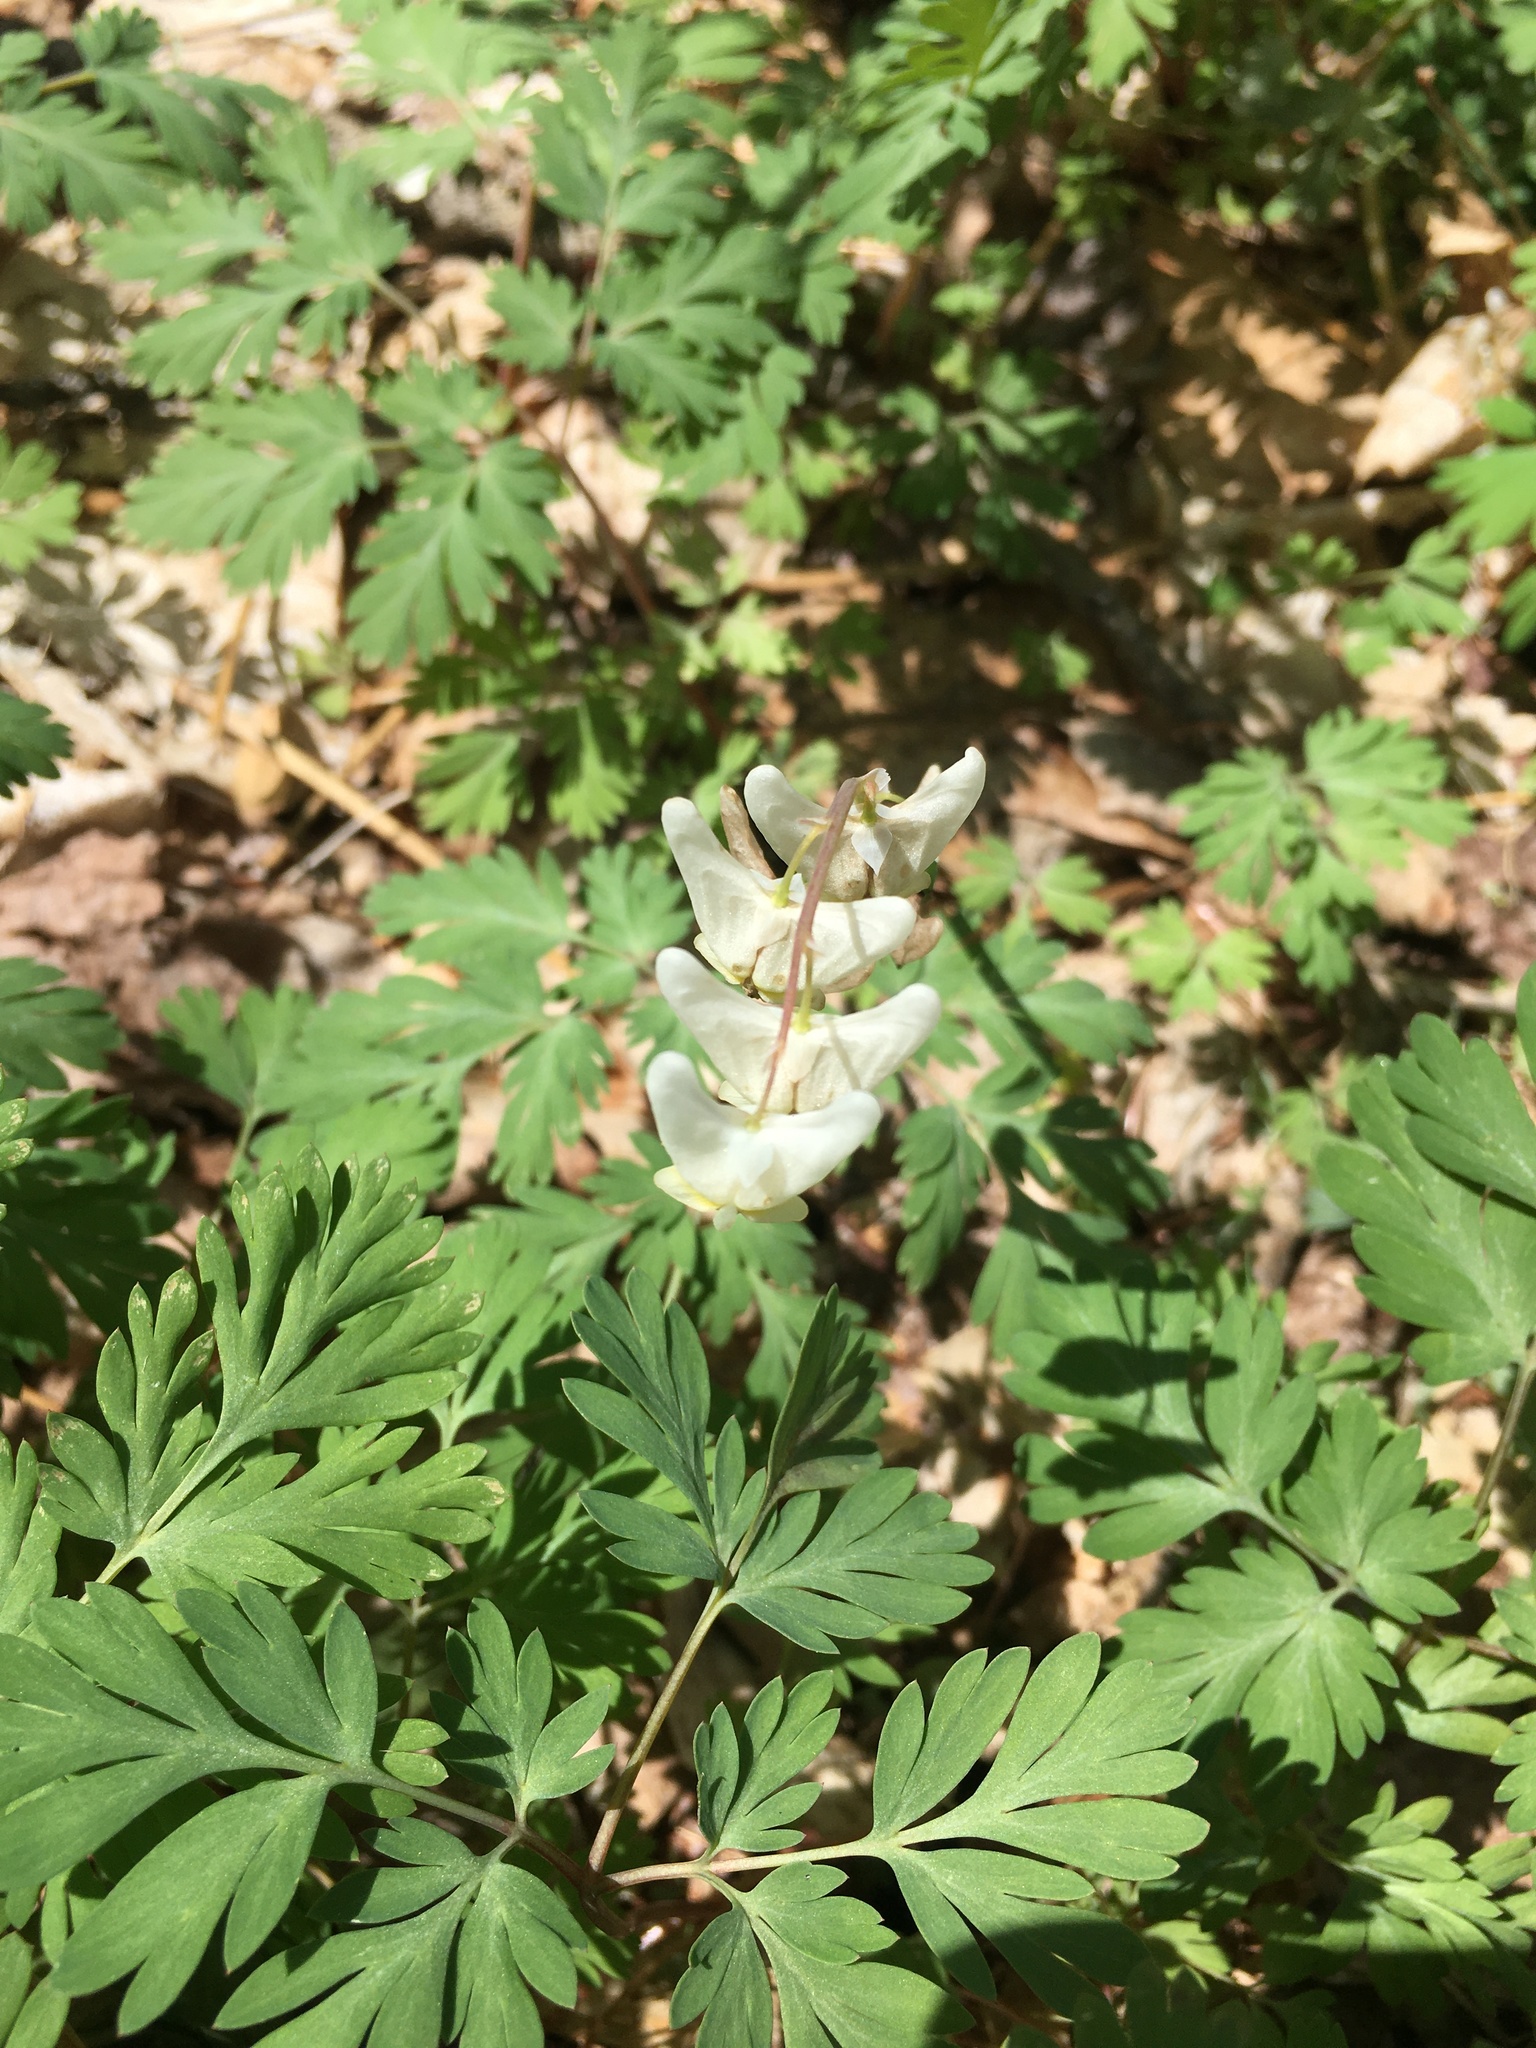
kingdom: Plantae
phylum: Tracheophyta
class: Magnoliopsida
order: Ranunculales
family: Papaveraceae
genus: Dicentra
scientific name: Dicentra cucullaria
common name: Dutchman's breeches
